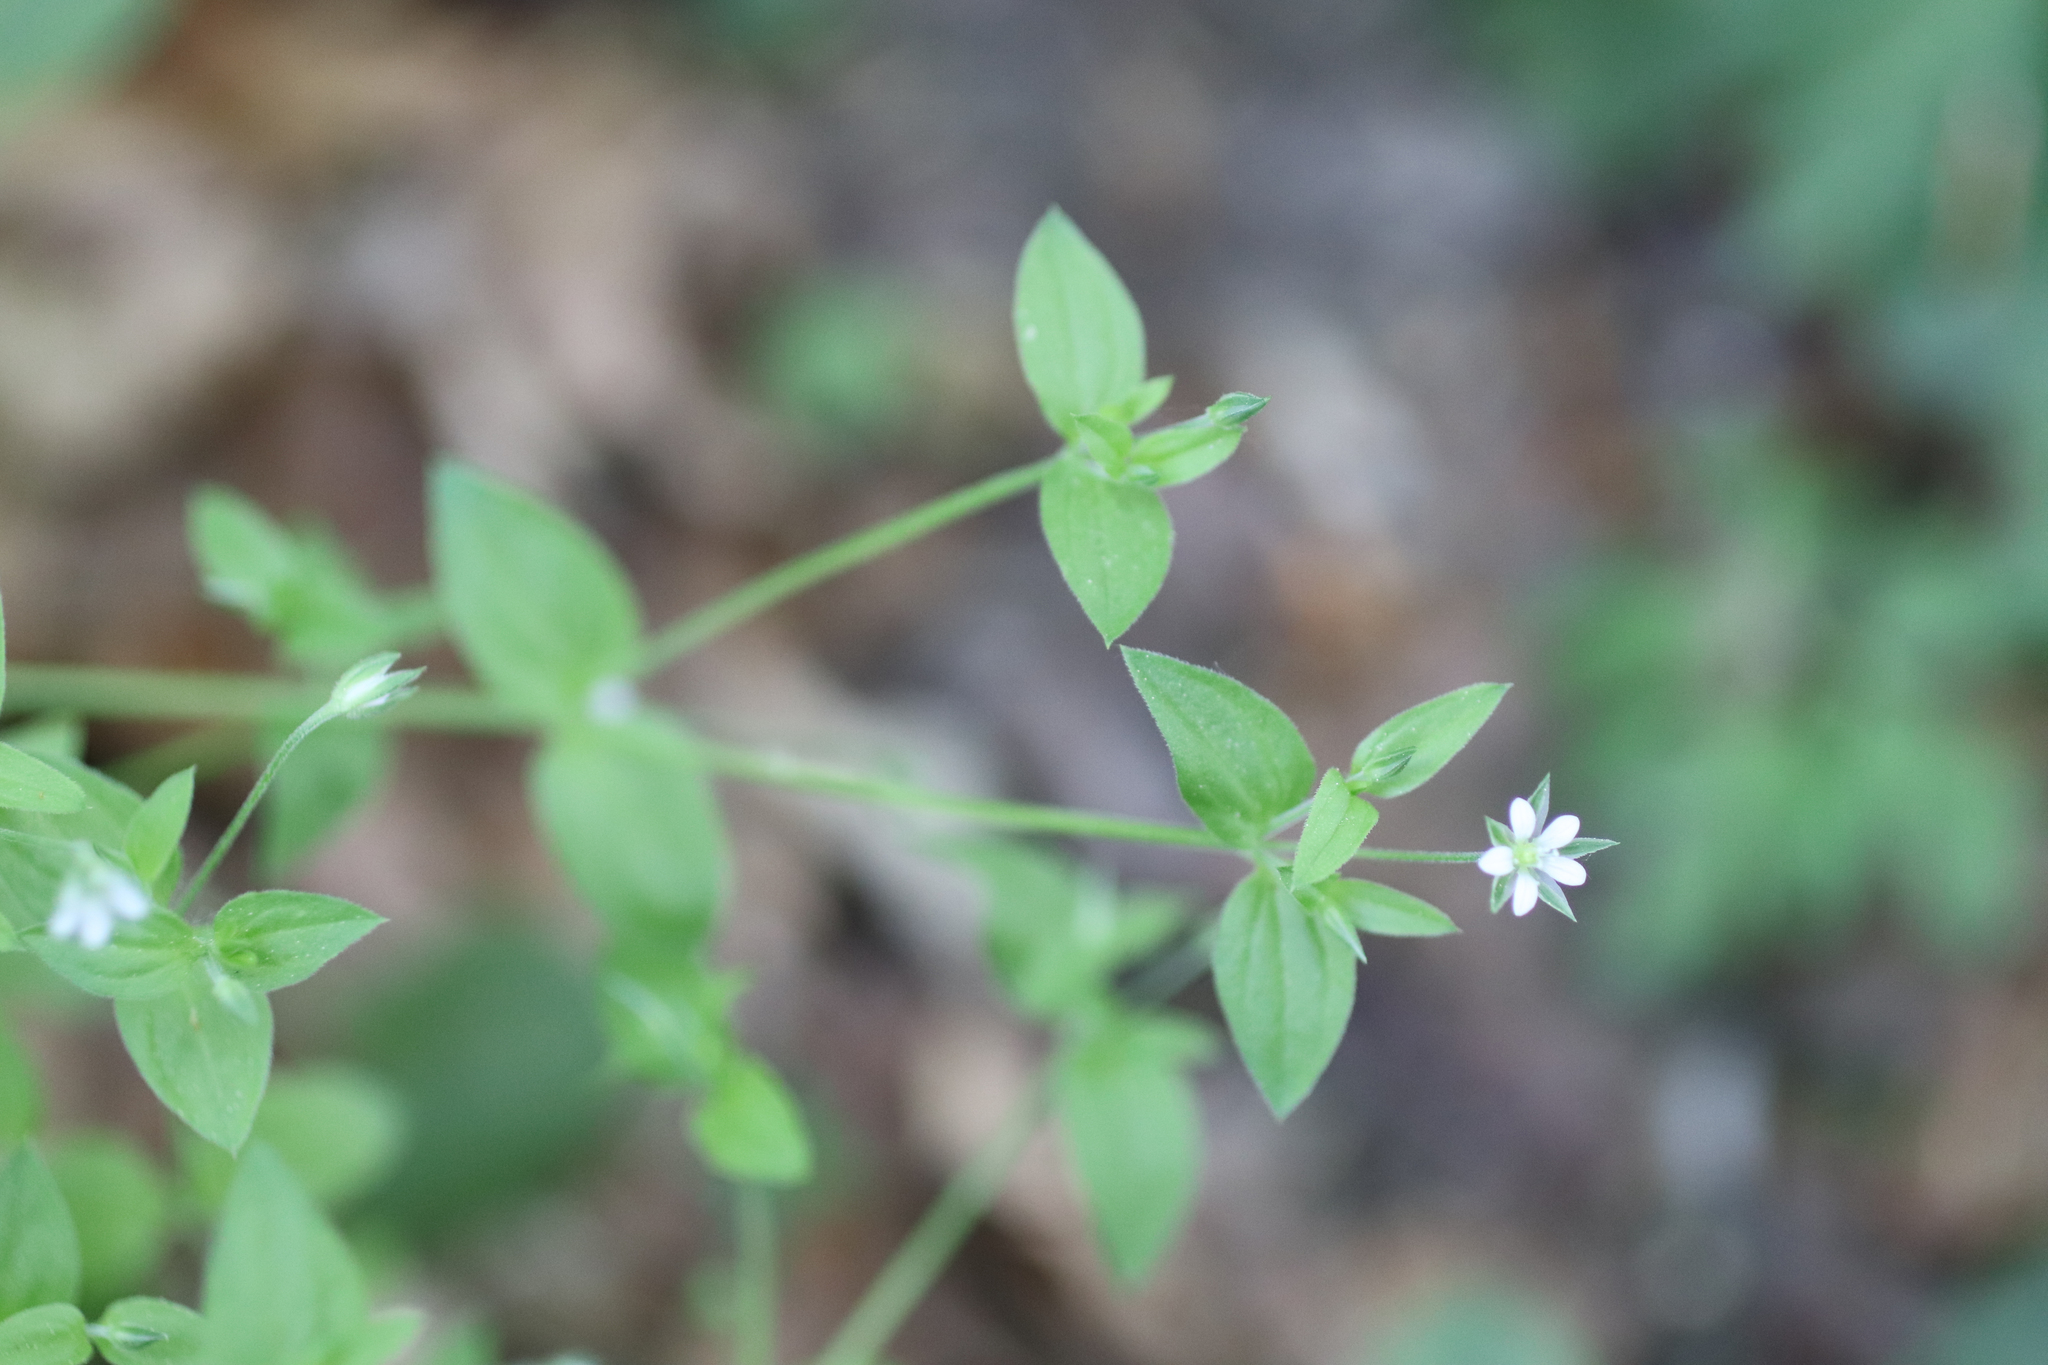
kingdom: Plantae
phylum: Tracheophyta
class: Magnoliopsida
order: Caryophyllales
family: Caryophyllaceae
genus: Moehringia
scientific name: Moehringia trinervia
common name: Three-nerved sandwort
